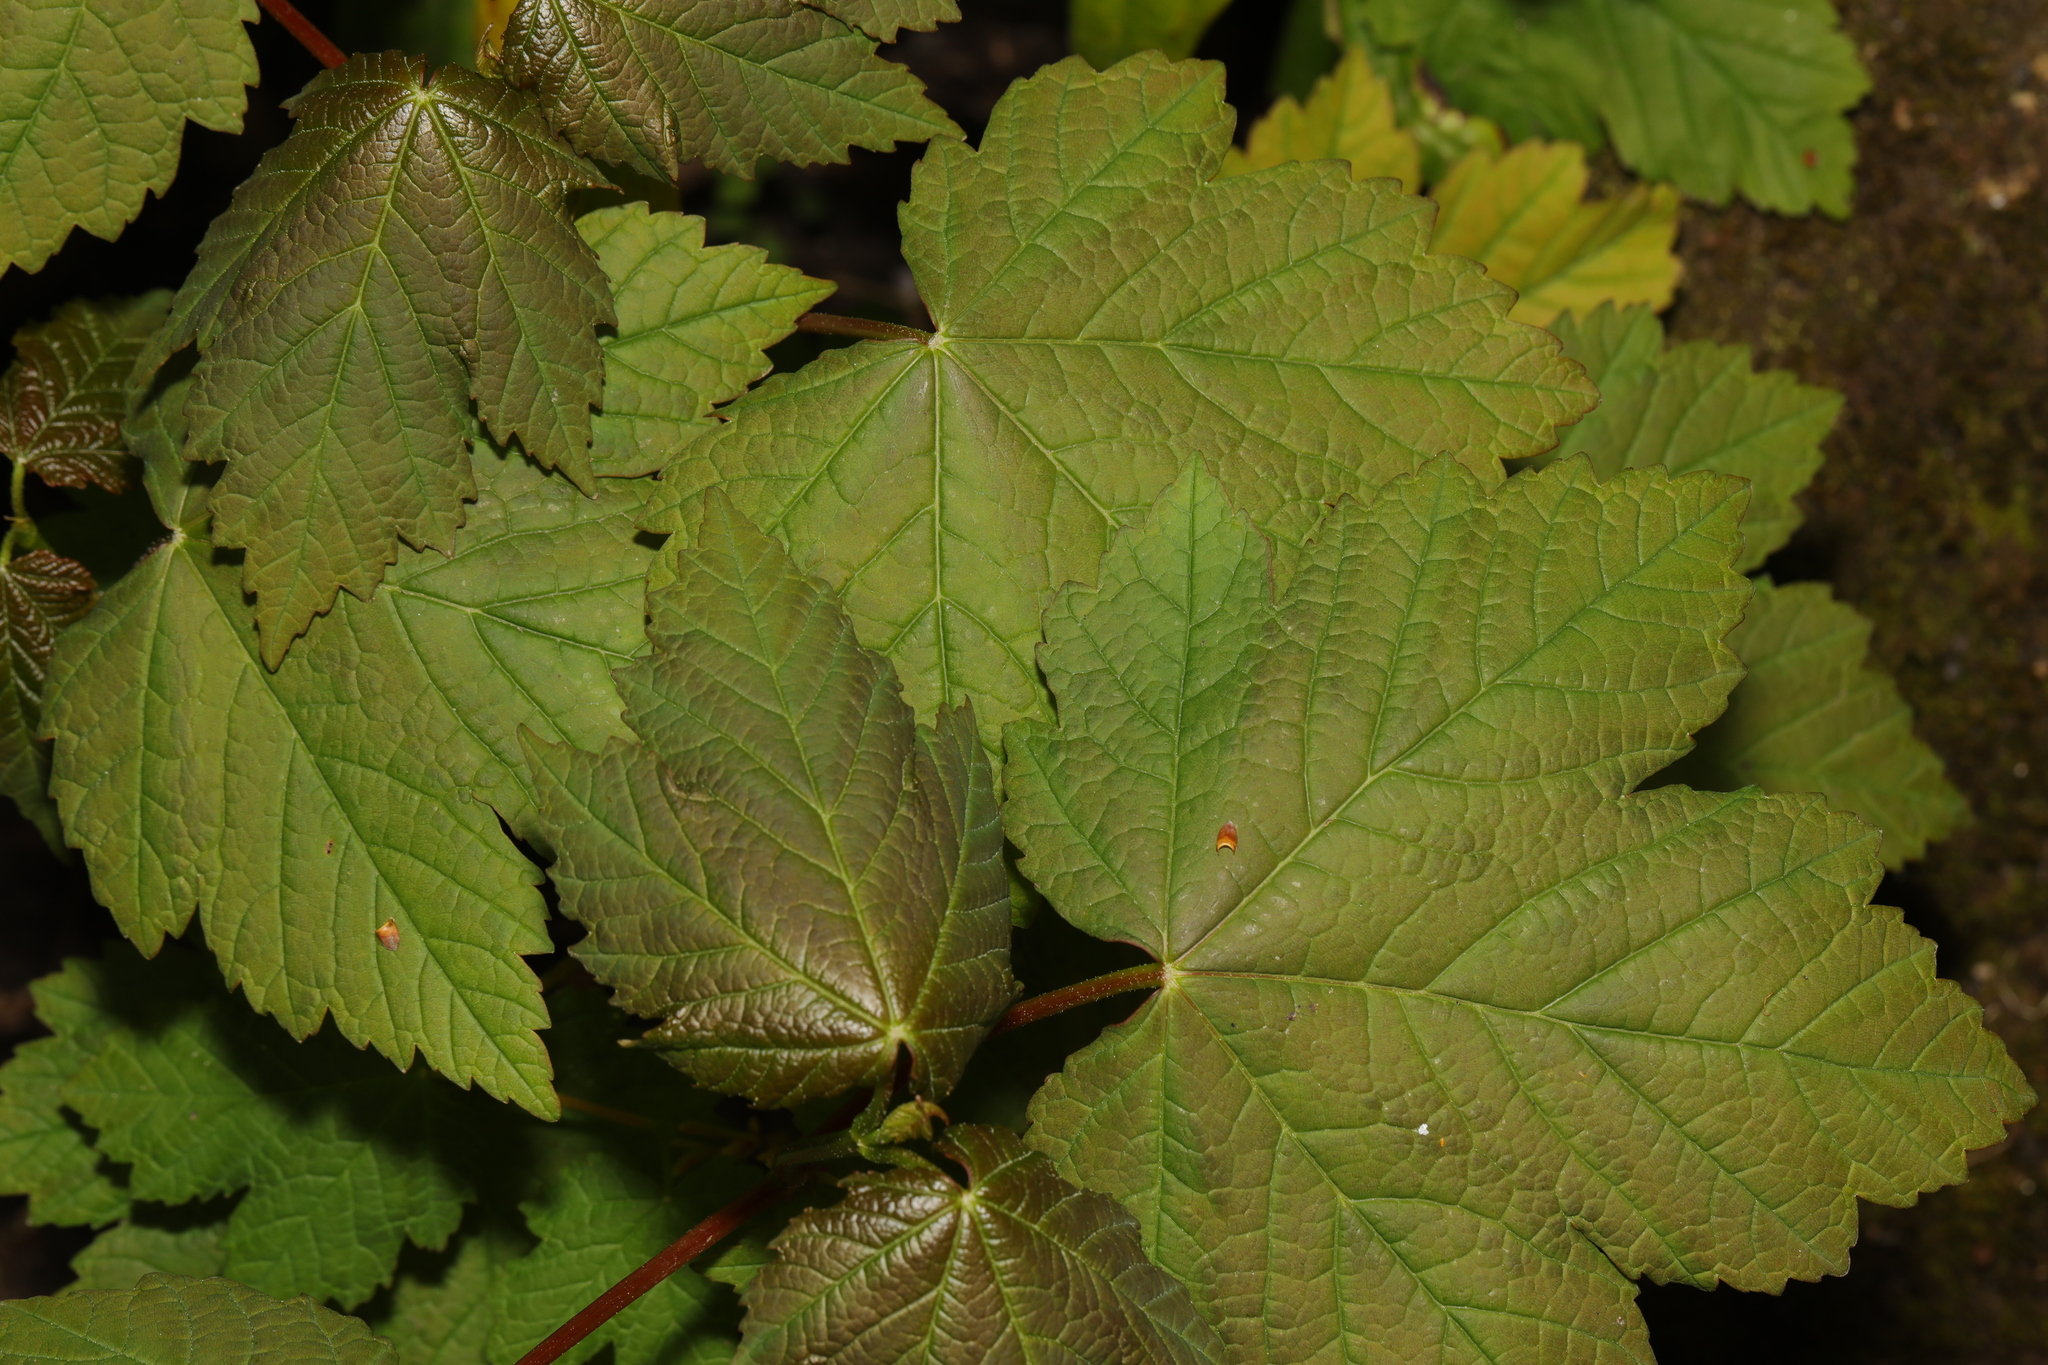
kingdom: Plantae
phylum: Tracheophyta
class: Magnoliopsida
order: Sapindales
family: Sapindaceae
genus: Acer
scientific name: Acer pseudoplatanus
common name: Sycamore
